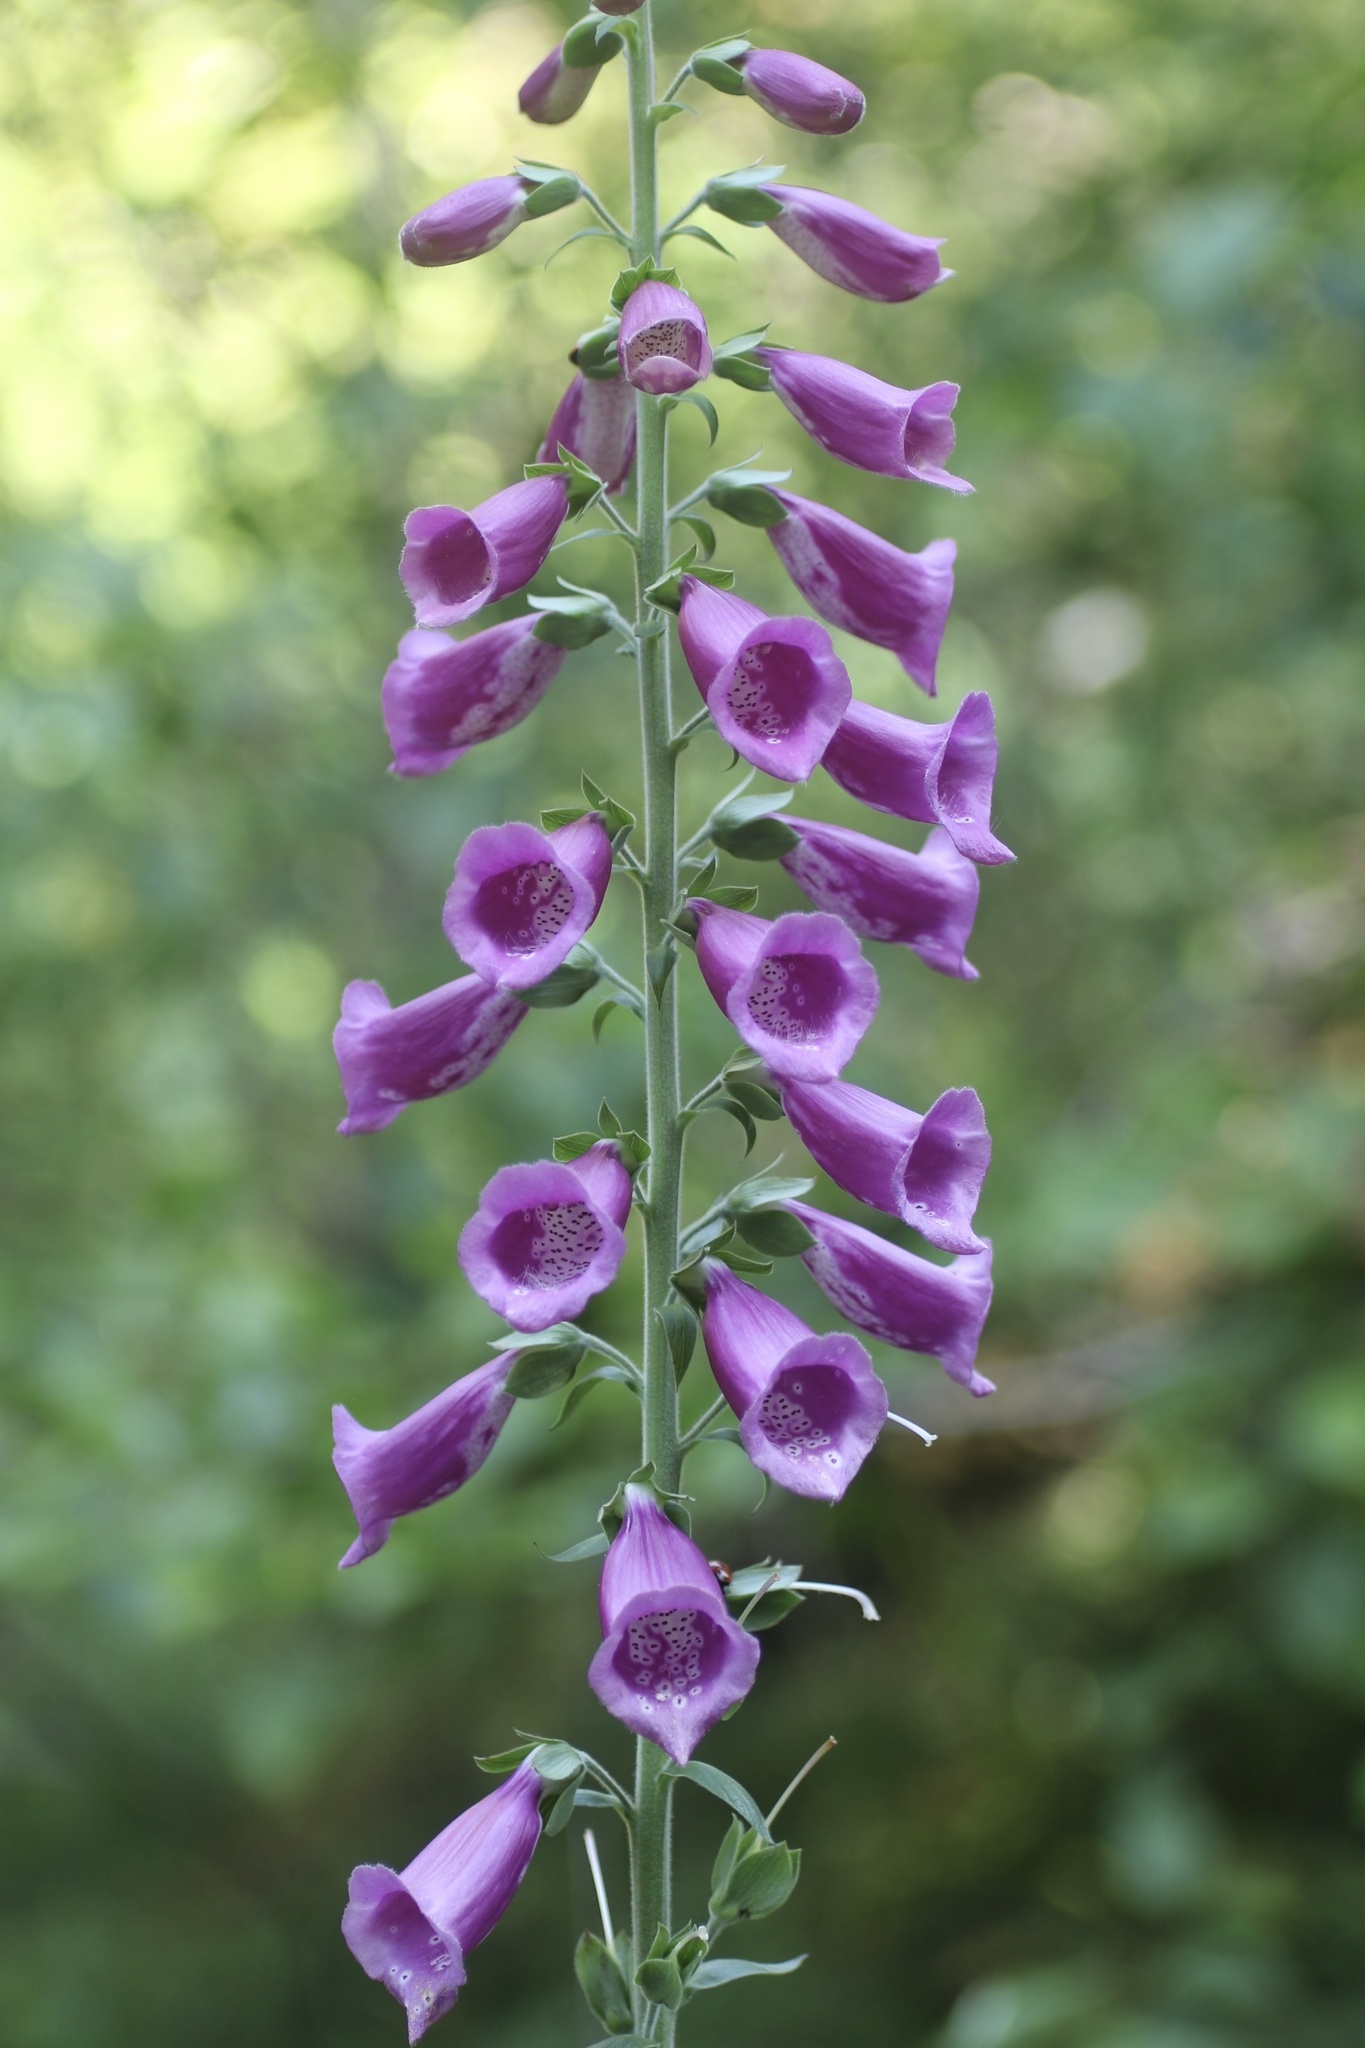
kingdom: Plantae
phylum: Tracheophyta
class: Magnoliopsida
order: Lamiales
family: Plantaginaceae
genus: Digitalis
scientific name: Digitalis purpurea
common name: Foxglove
